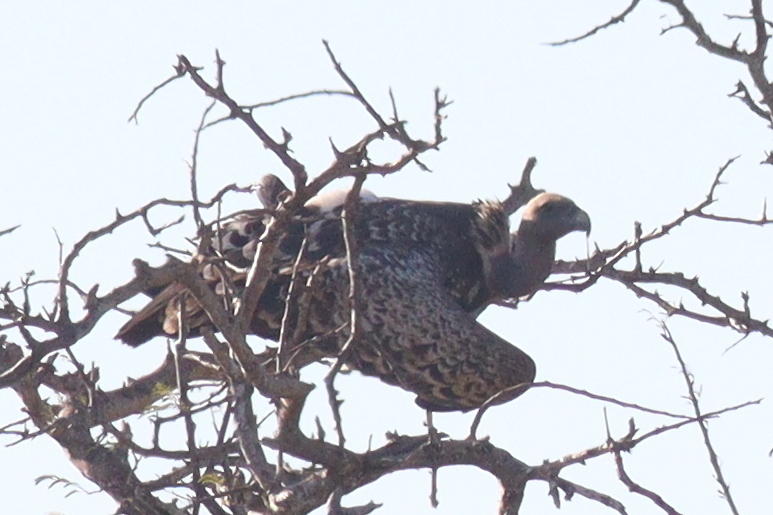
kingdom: Animalia
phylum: Chordata
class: Aves
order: Accipitriformes
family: Accipitridae
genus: Gyps
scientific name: Gyps rueppellii
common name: Rüppell's vulture
